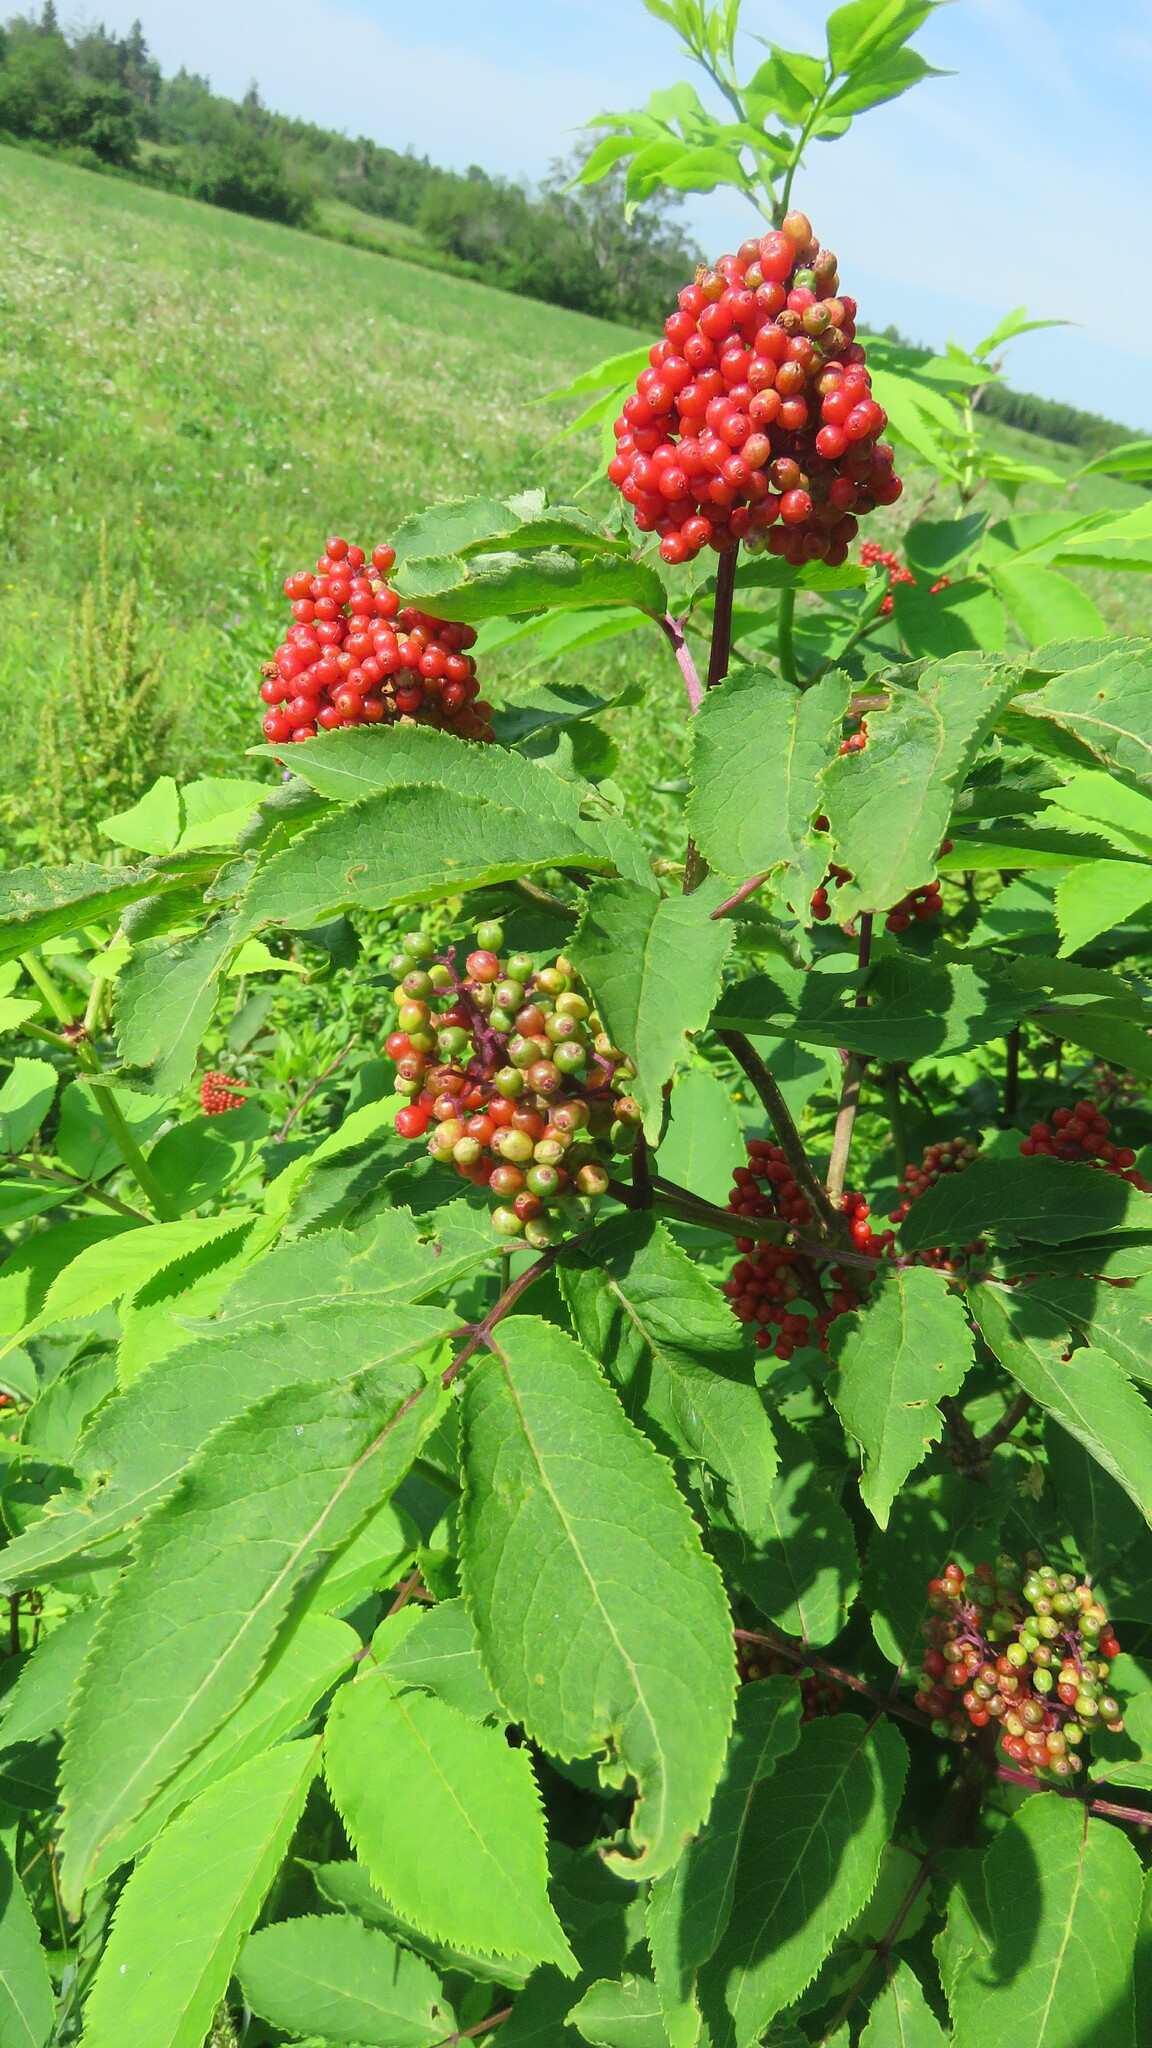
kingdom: Plantae
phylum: Tracheophyta
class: Magnoliopsida
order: Dipsacales
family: Viburnaceae
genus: Sambucus
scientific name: Sambucus racemosa
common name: Red-berried elder
